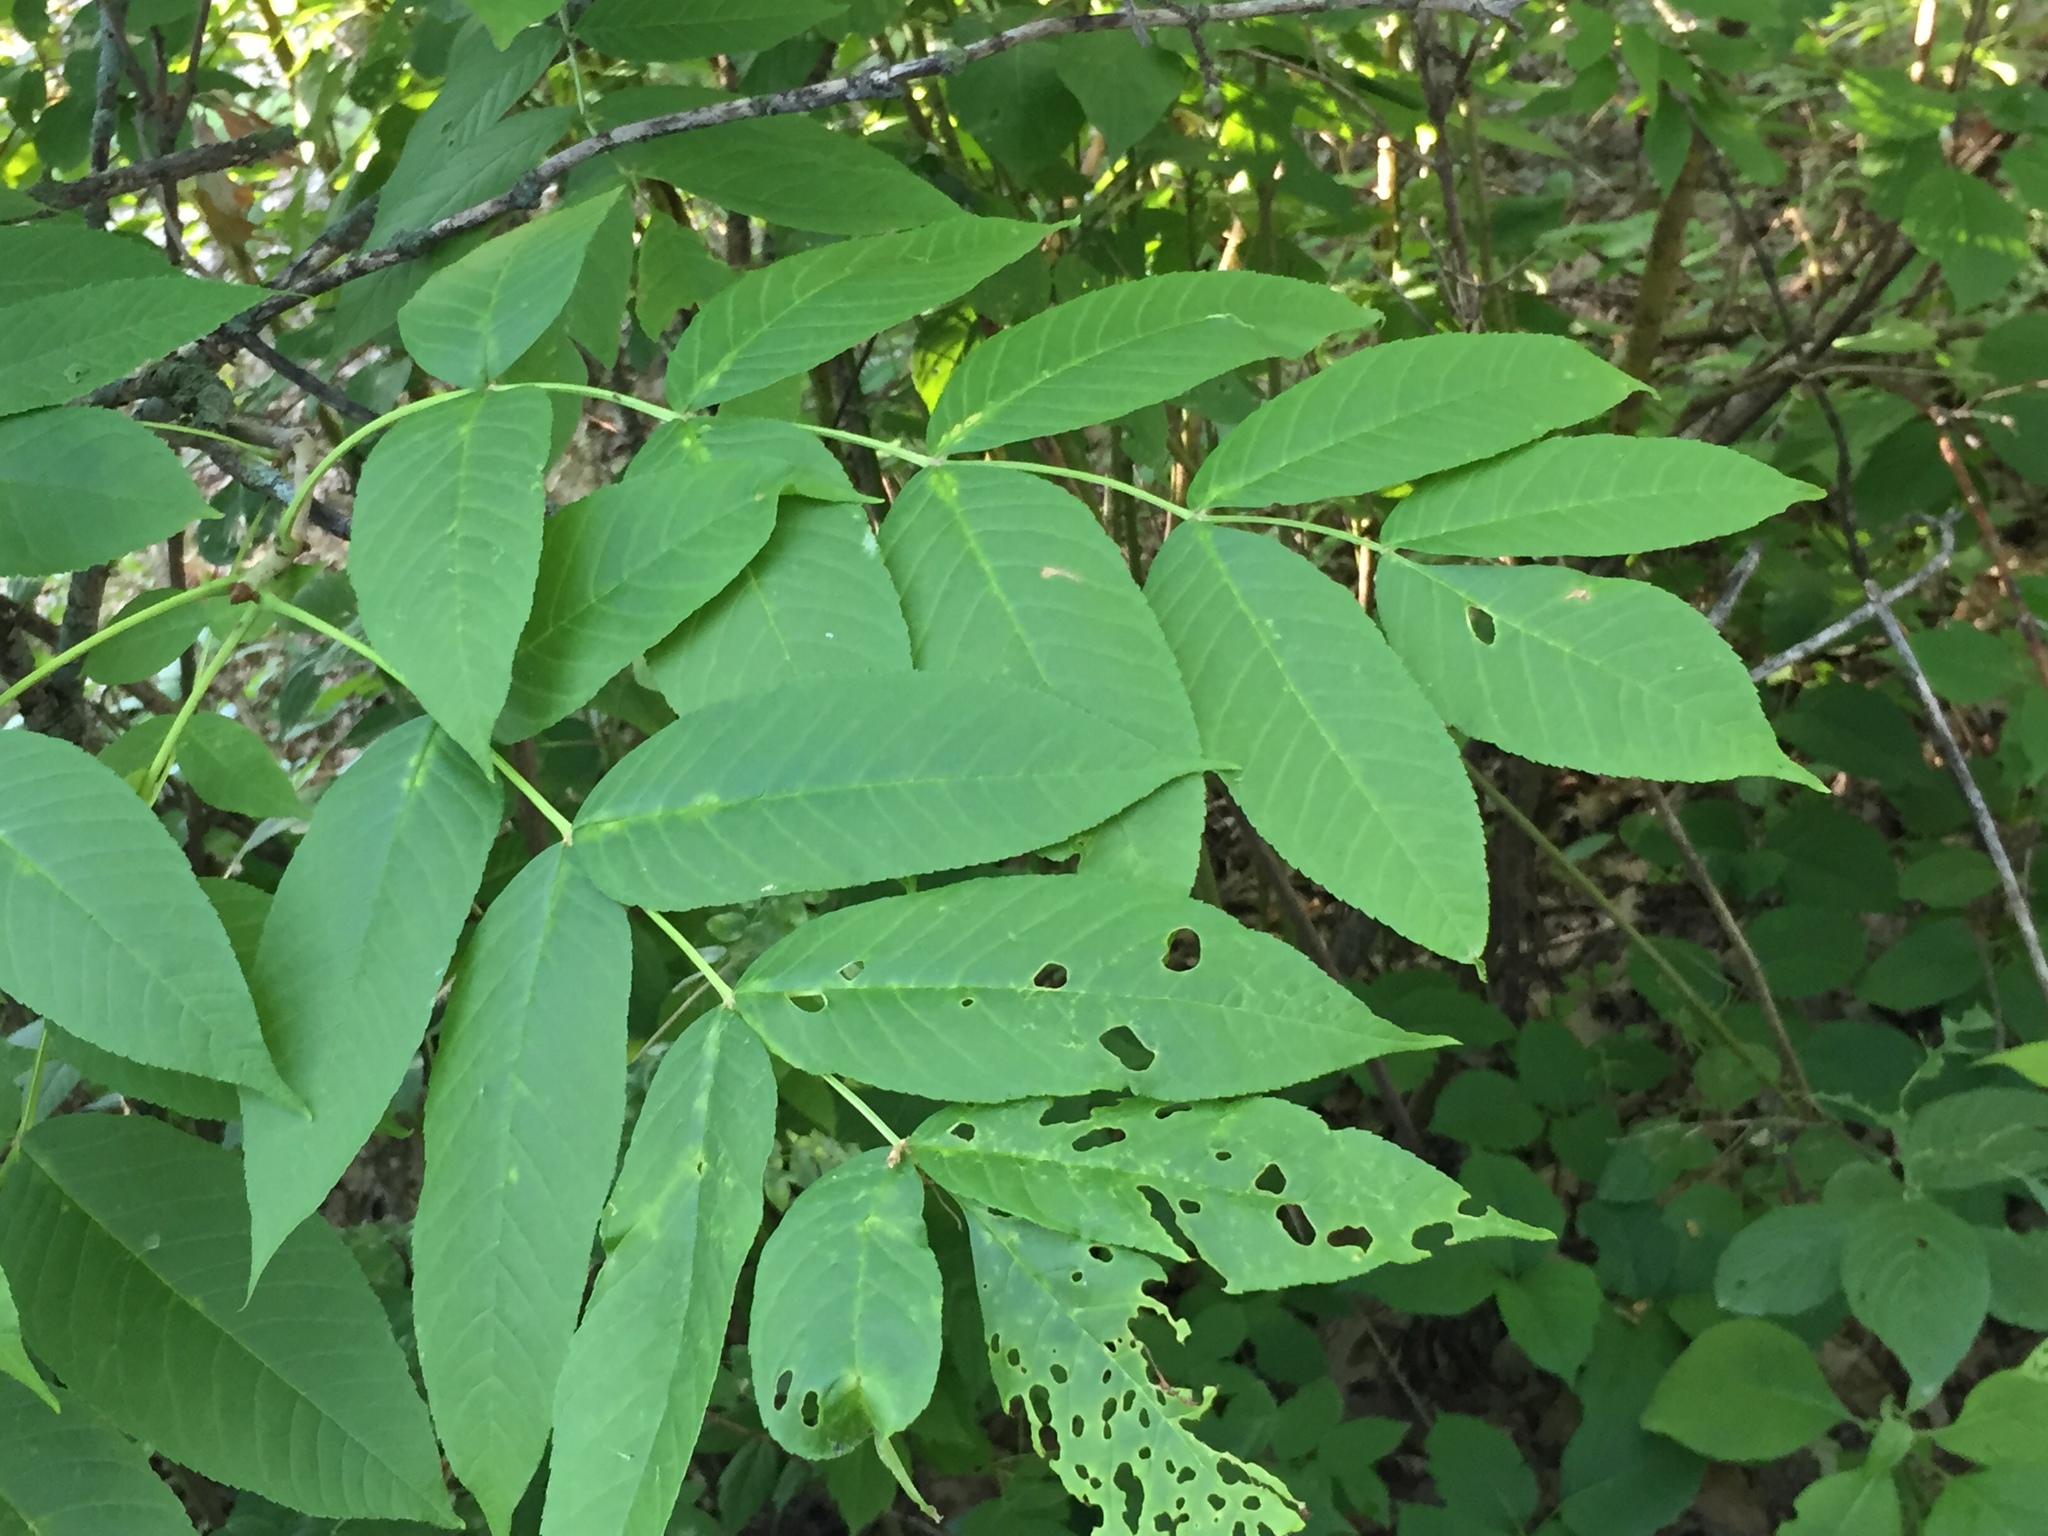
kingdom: Plantae
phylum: Tracheophyta
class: Magnoliopsida
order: Lamiales
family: Oleaceae
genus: Fraxinus
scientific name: Fraxinus nigra
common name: Black ash
